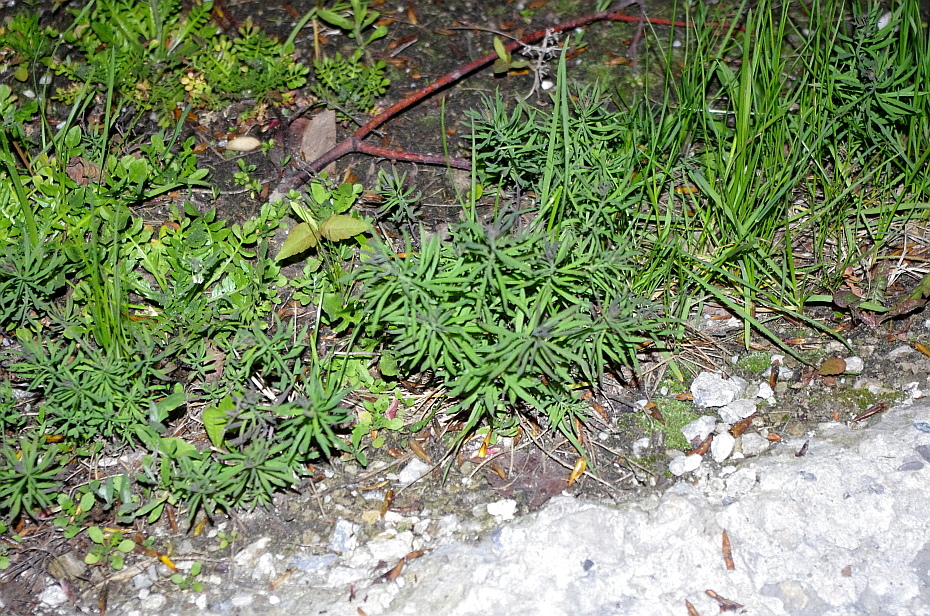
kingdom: Plantae
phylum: Tracheophyta
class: Magnoliopsida
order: Lamiales
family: Plantaginaceae
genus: Linaria
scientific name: Linaria vulgaris
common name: Butter and eggs
